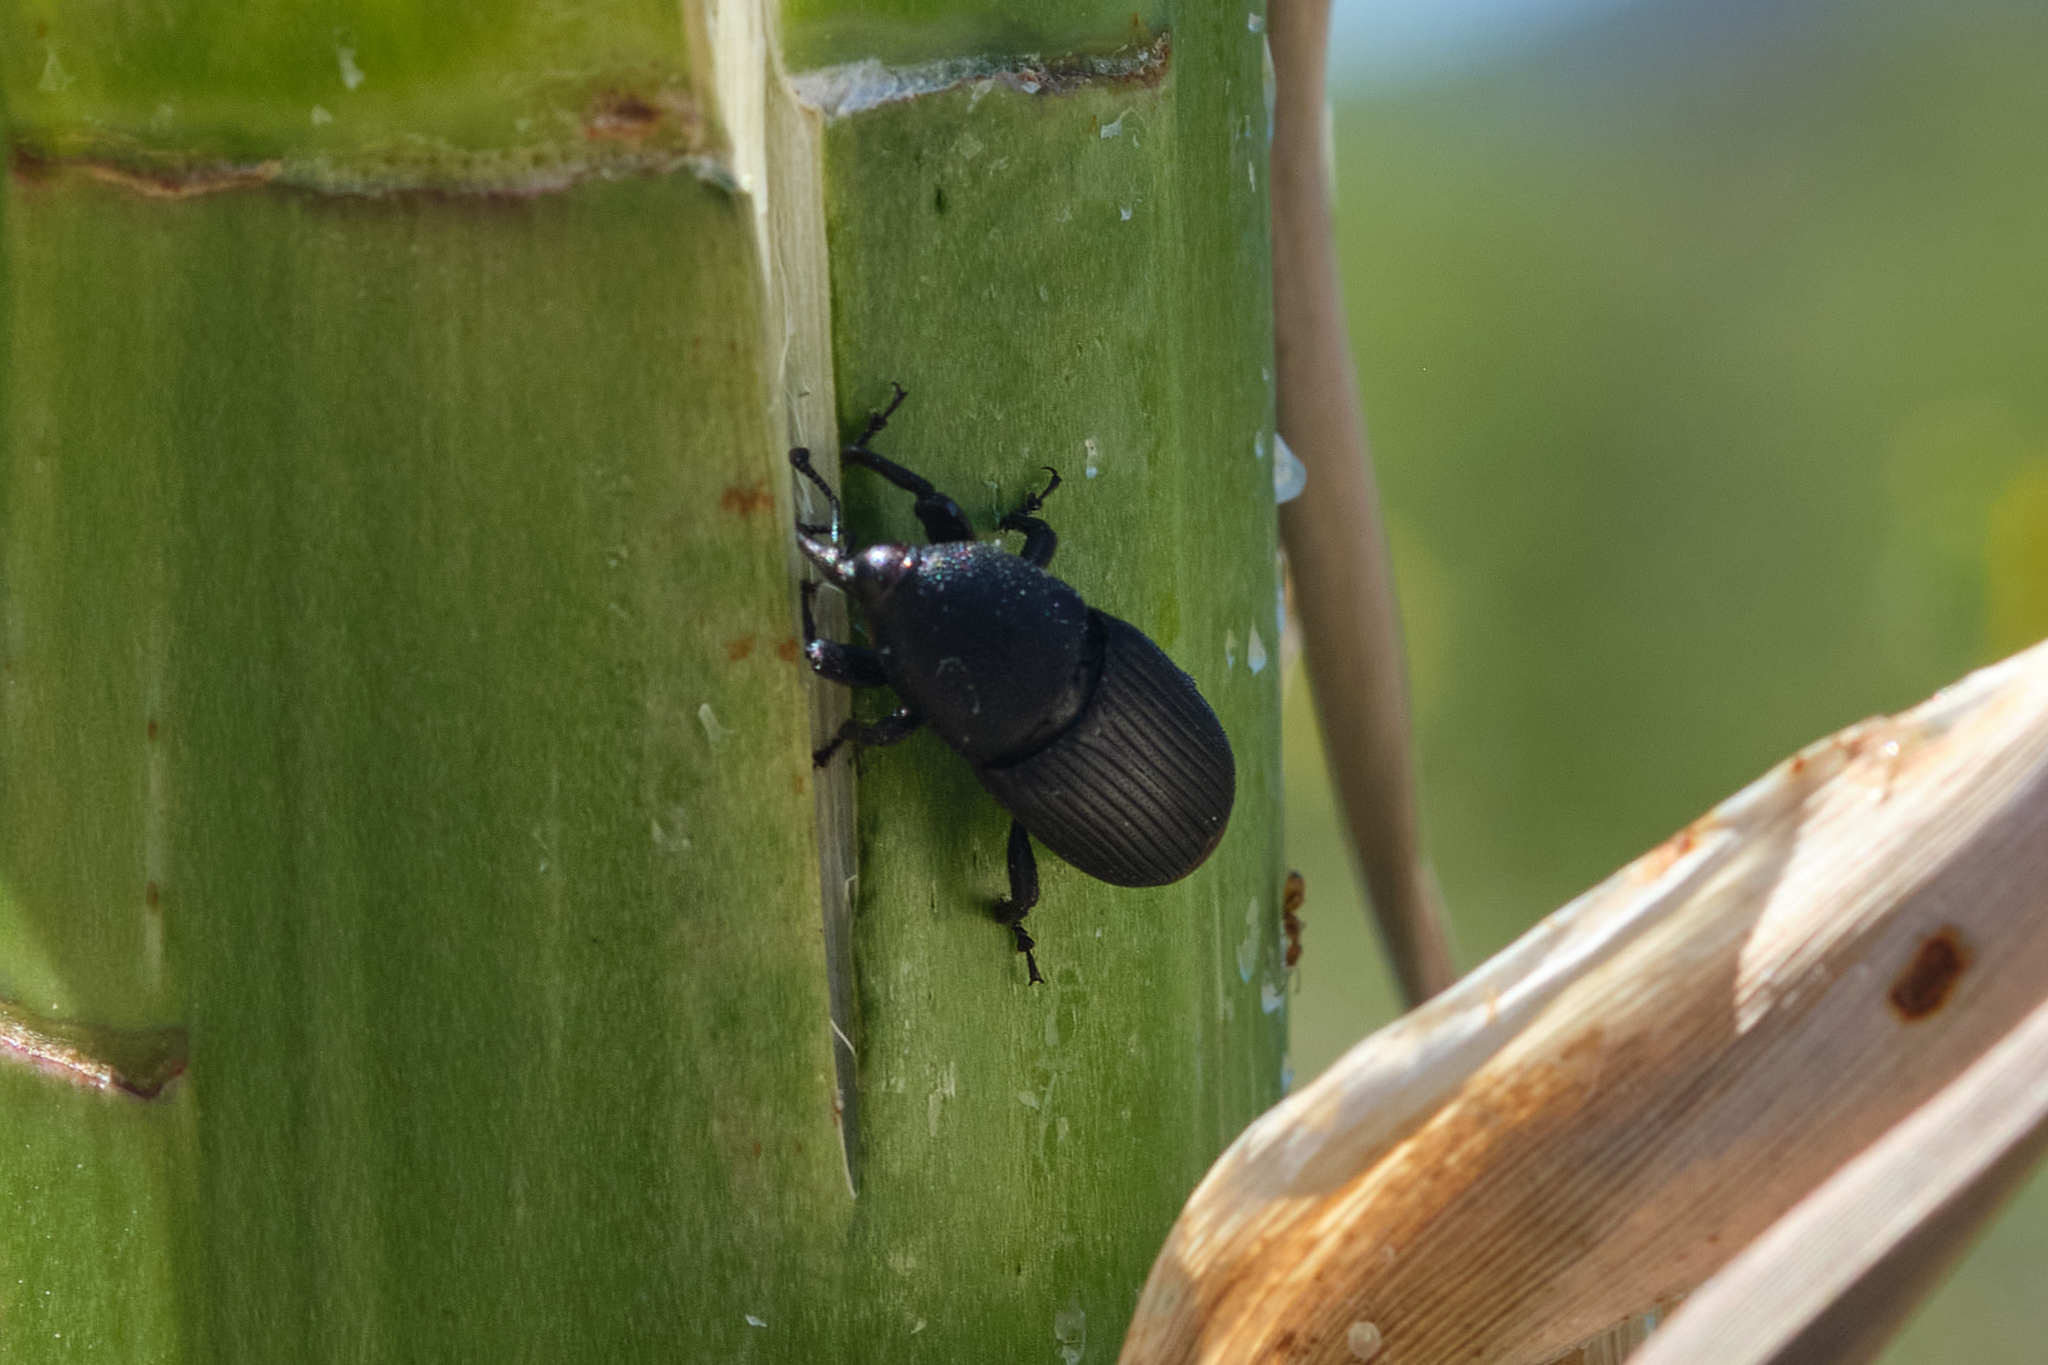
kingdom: Animalia
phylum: Arthropoda
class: Insecta
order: Coleoptera
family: Dryophthoridae
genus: Scyphophorus
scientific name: Scyphophorus yuccae
